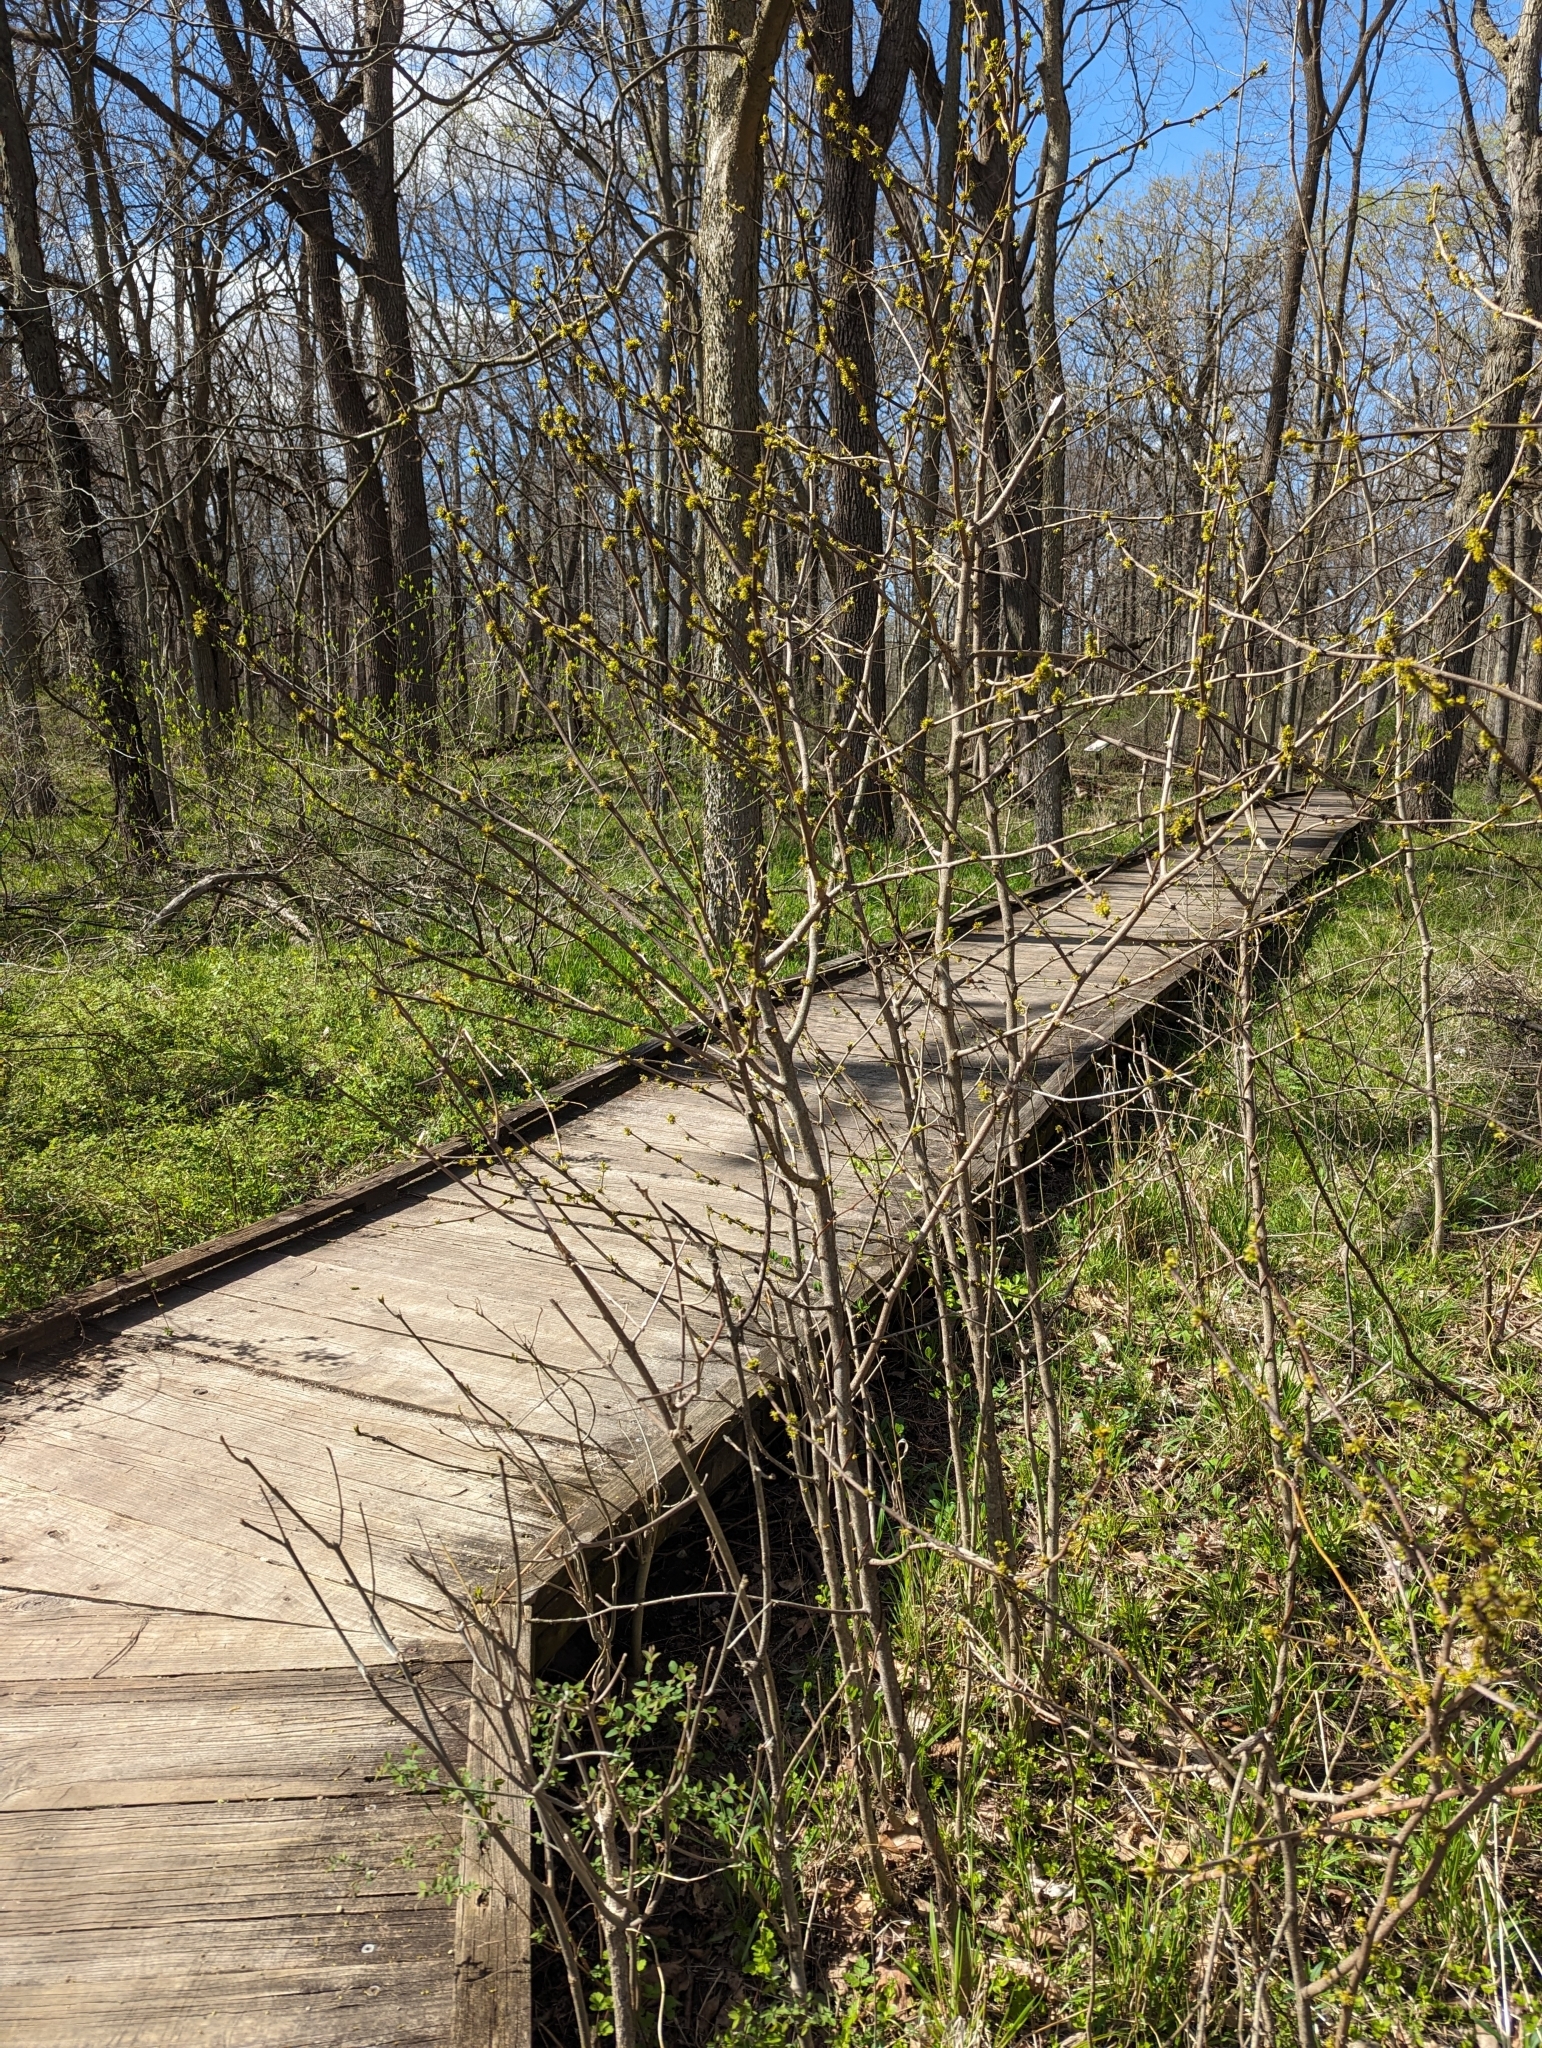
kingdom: Plantae
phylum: Tracheophyta
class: Magnoliopsida
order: Sapindales
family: Rutaceae
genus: Zanthoxylum
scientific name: Zanthoxylum americanum
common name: Northern prickly-ash
